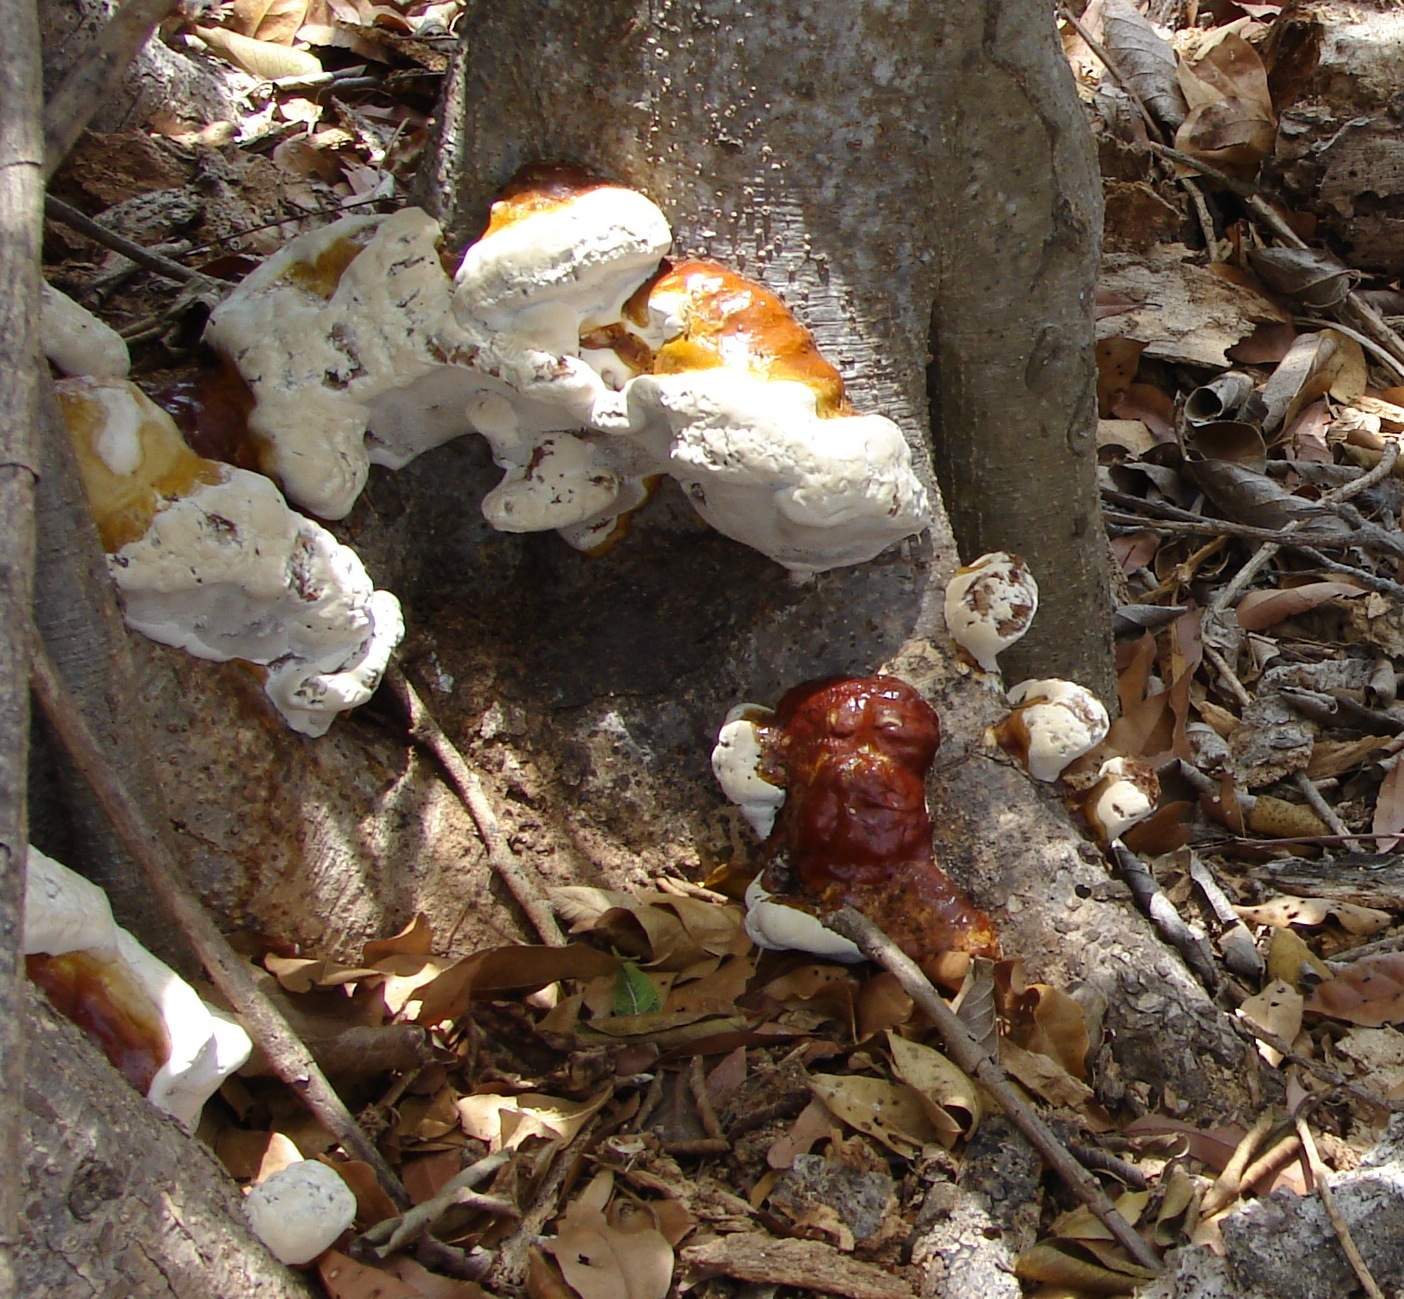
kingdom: Fungi
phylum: Basidiomycota
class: Agaricomycetes
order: Polyporales
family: Polyporaceae
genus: Ganoderma
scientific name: Ganoderma
